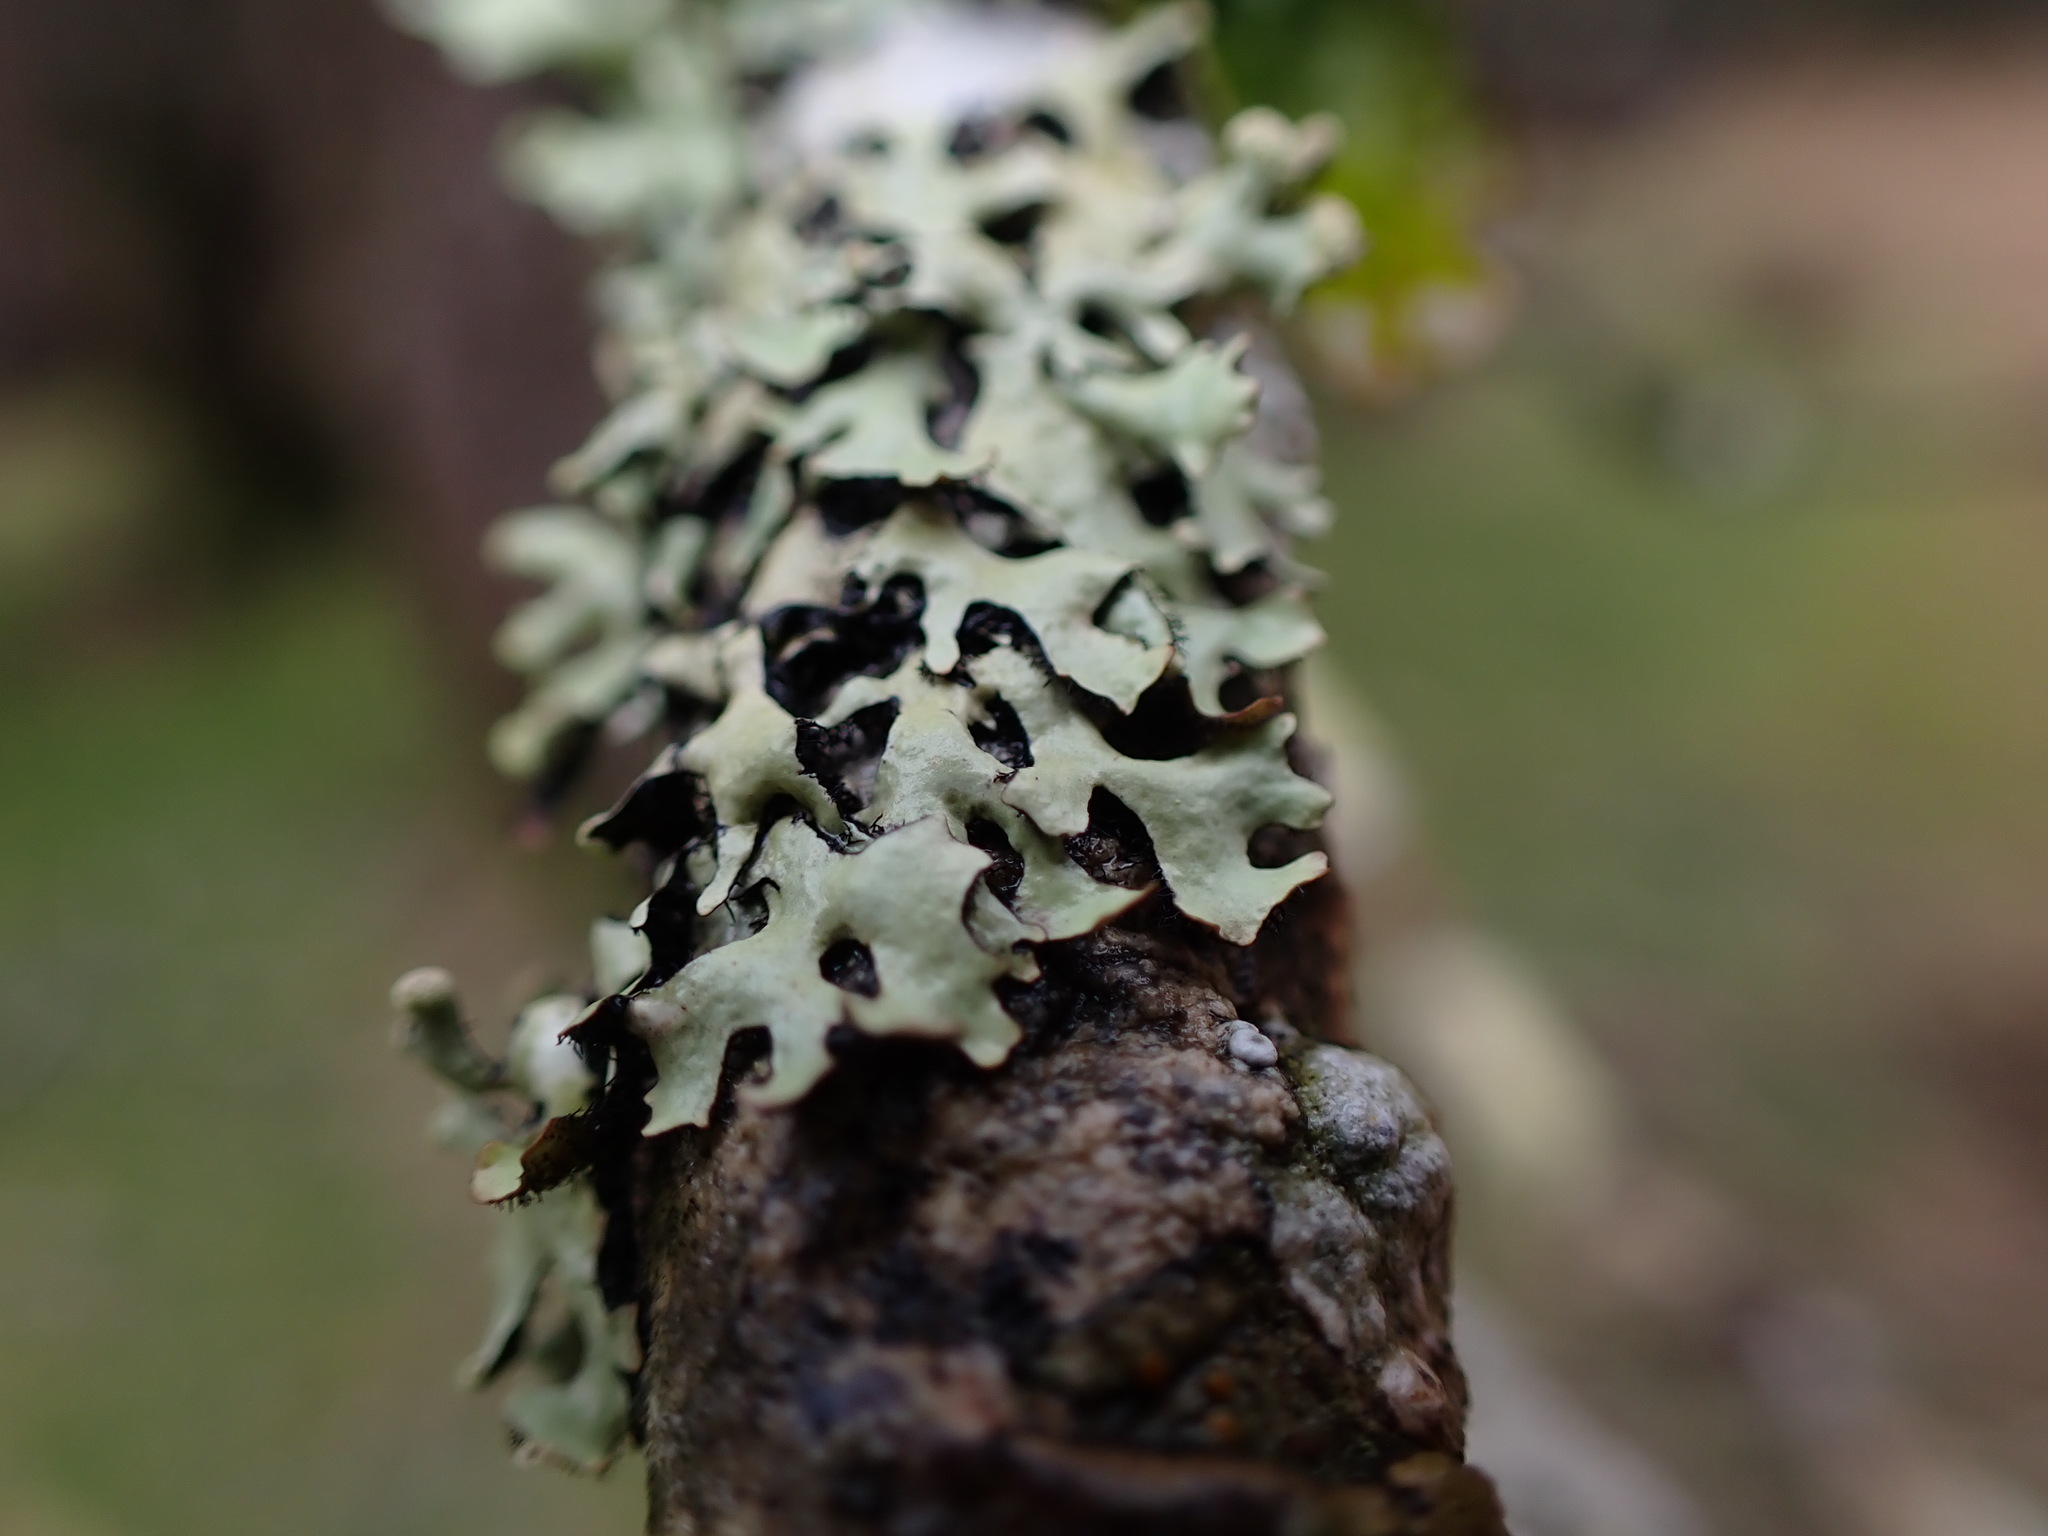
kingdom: Fungi
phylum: Ascomycota
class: Lecanoromycetes
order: Lecanorales
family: Parmeliaceae
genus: Hypotrachyna
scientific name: Hypotrachyna sinuosa
